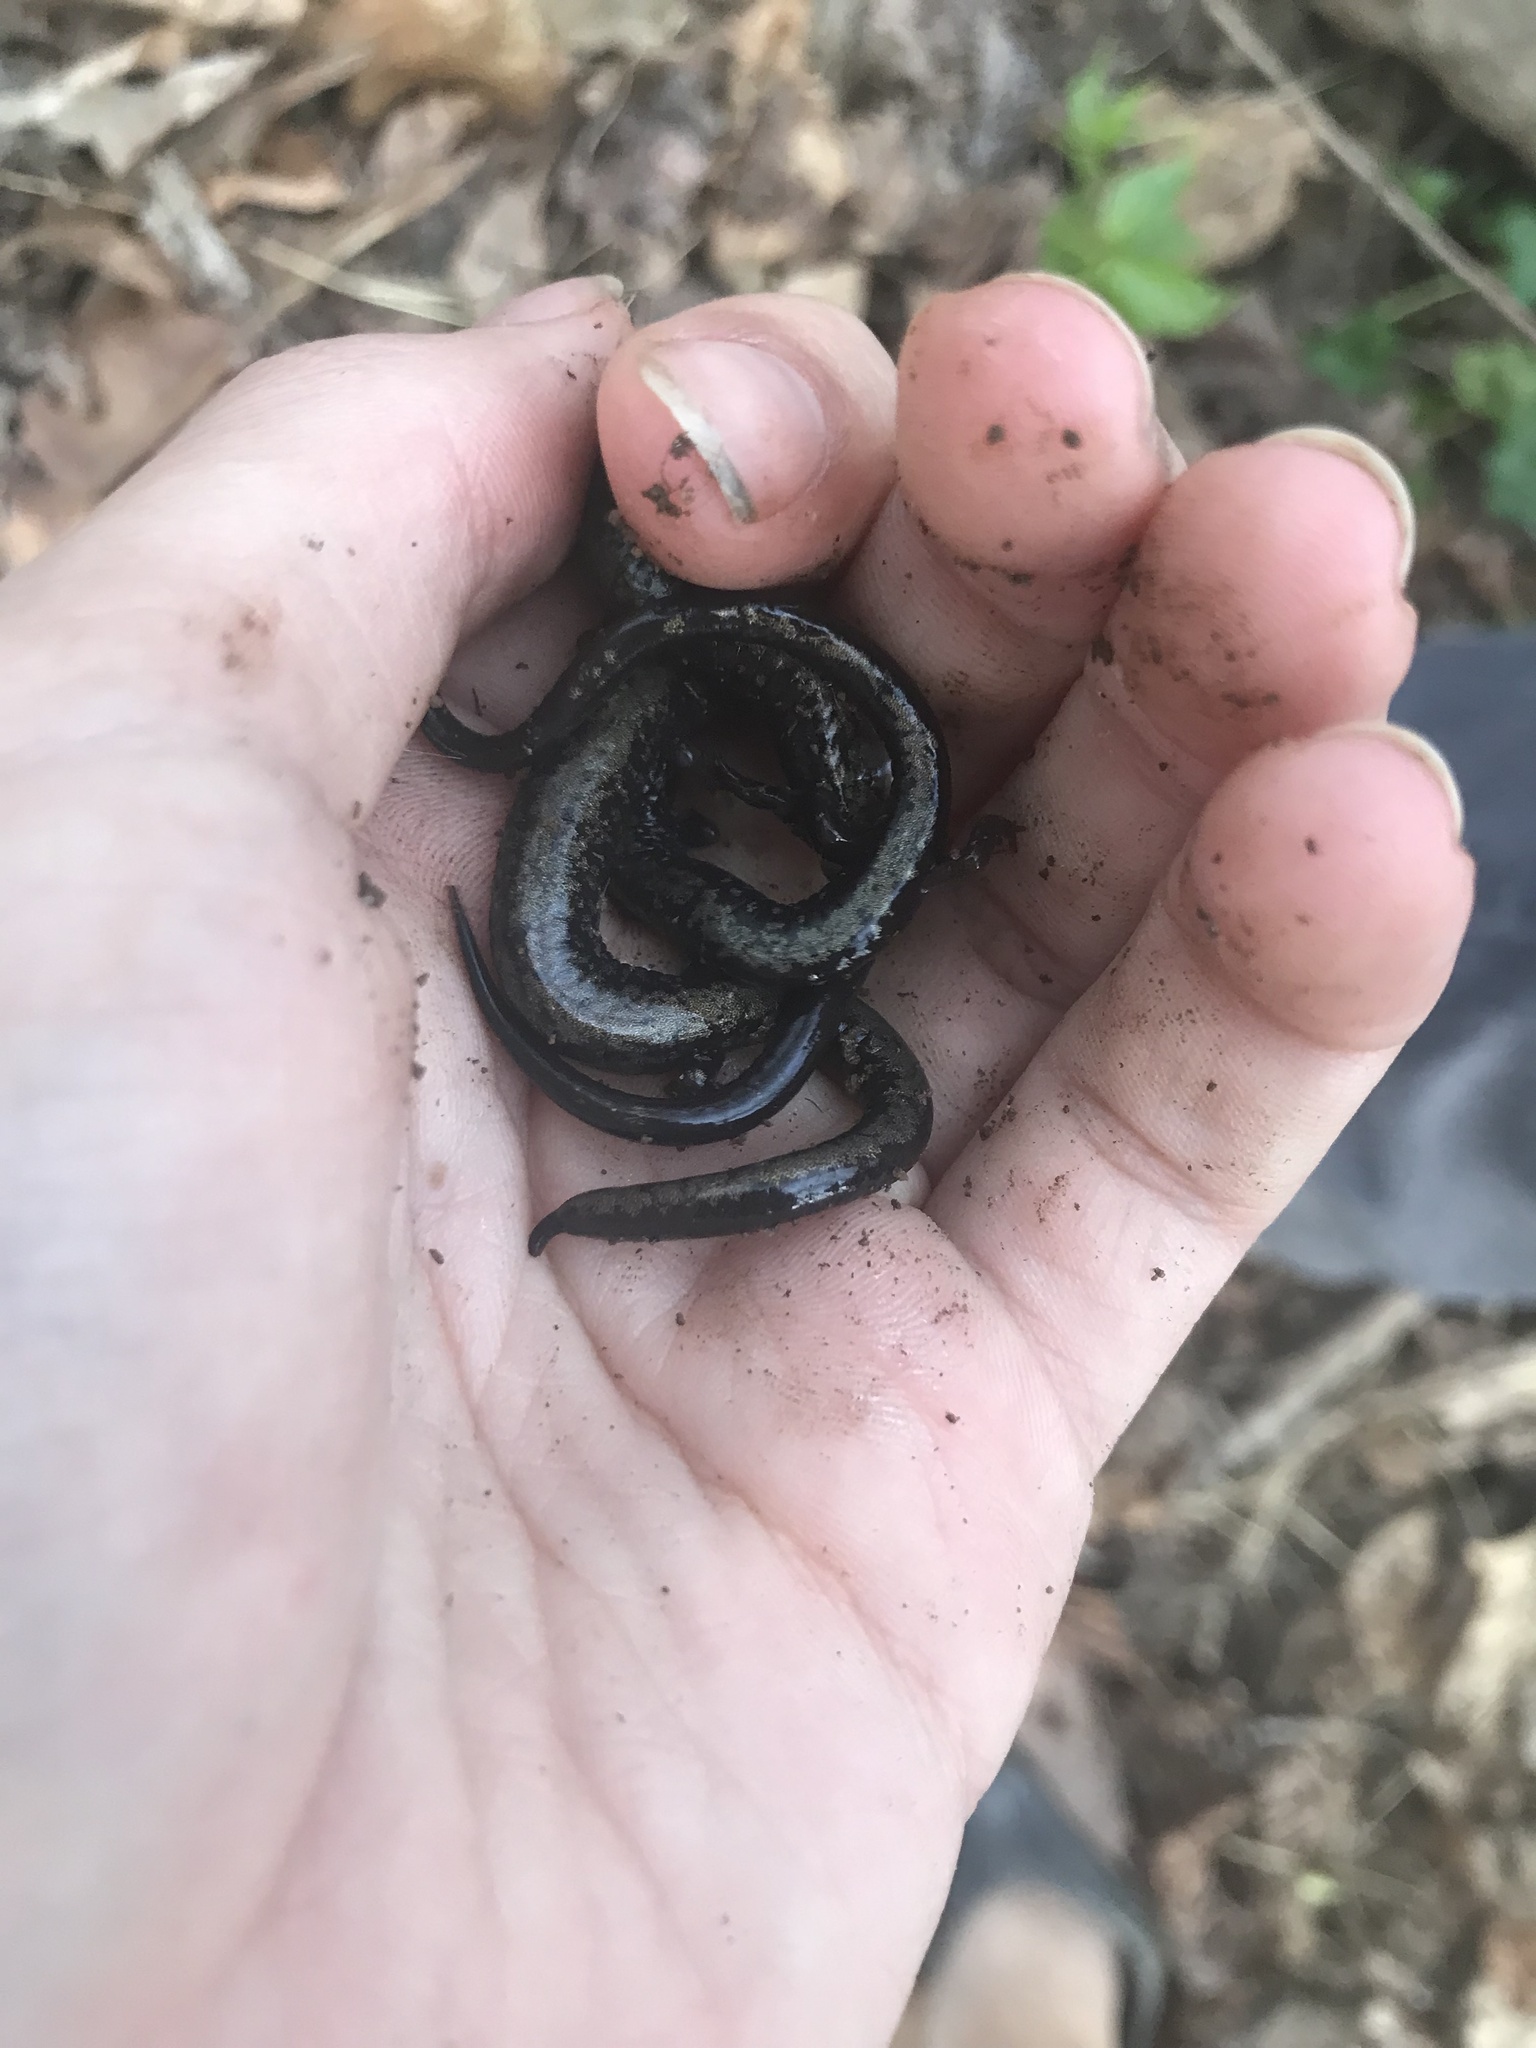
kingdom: Animalia
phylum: Chordata
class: Amphibia
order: Caudata
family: Plethodontidae
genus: Plethodon
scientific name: Plethodon hubrichti
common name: Peaks of otter salamander
